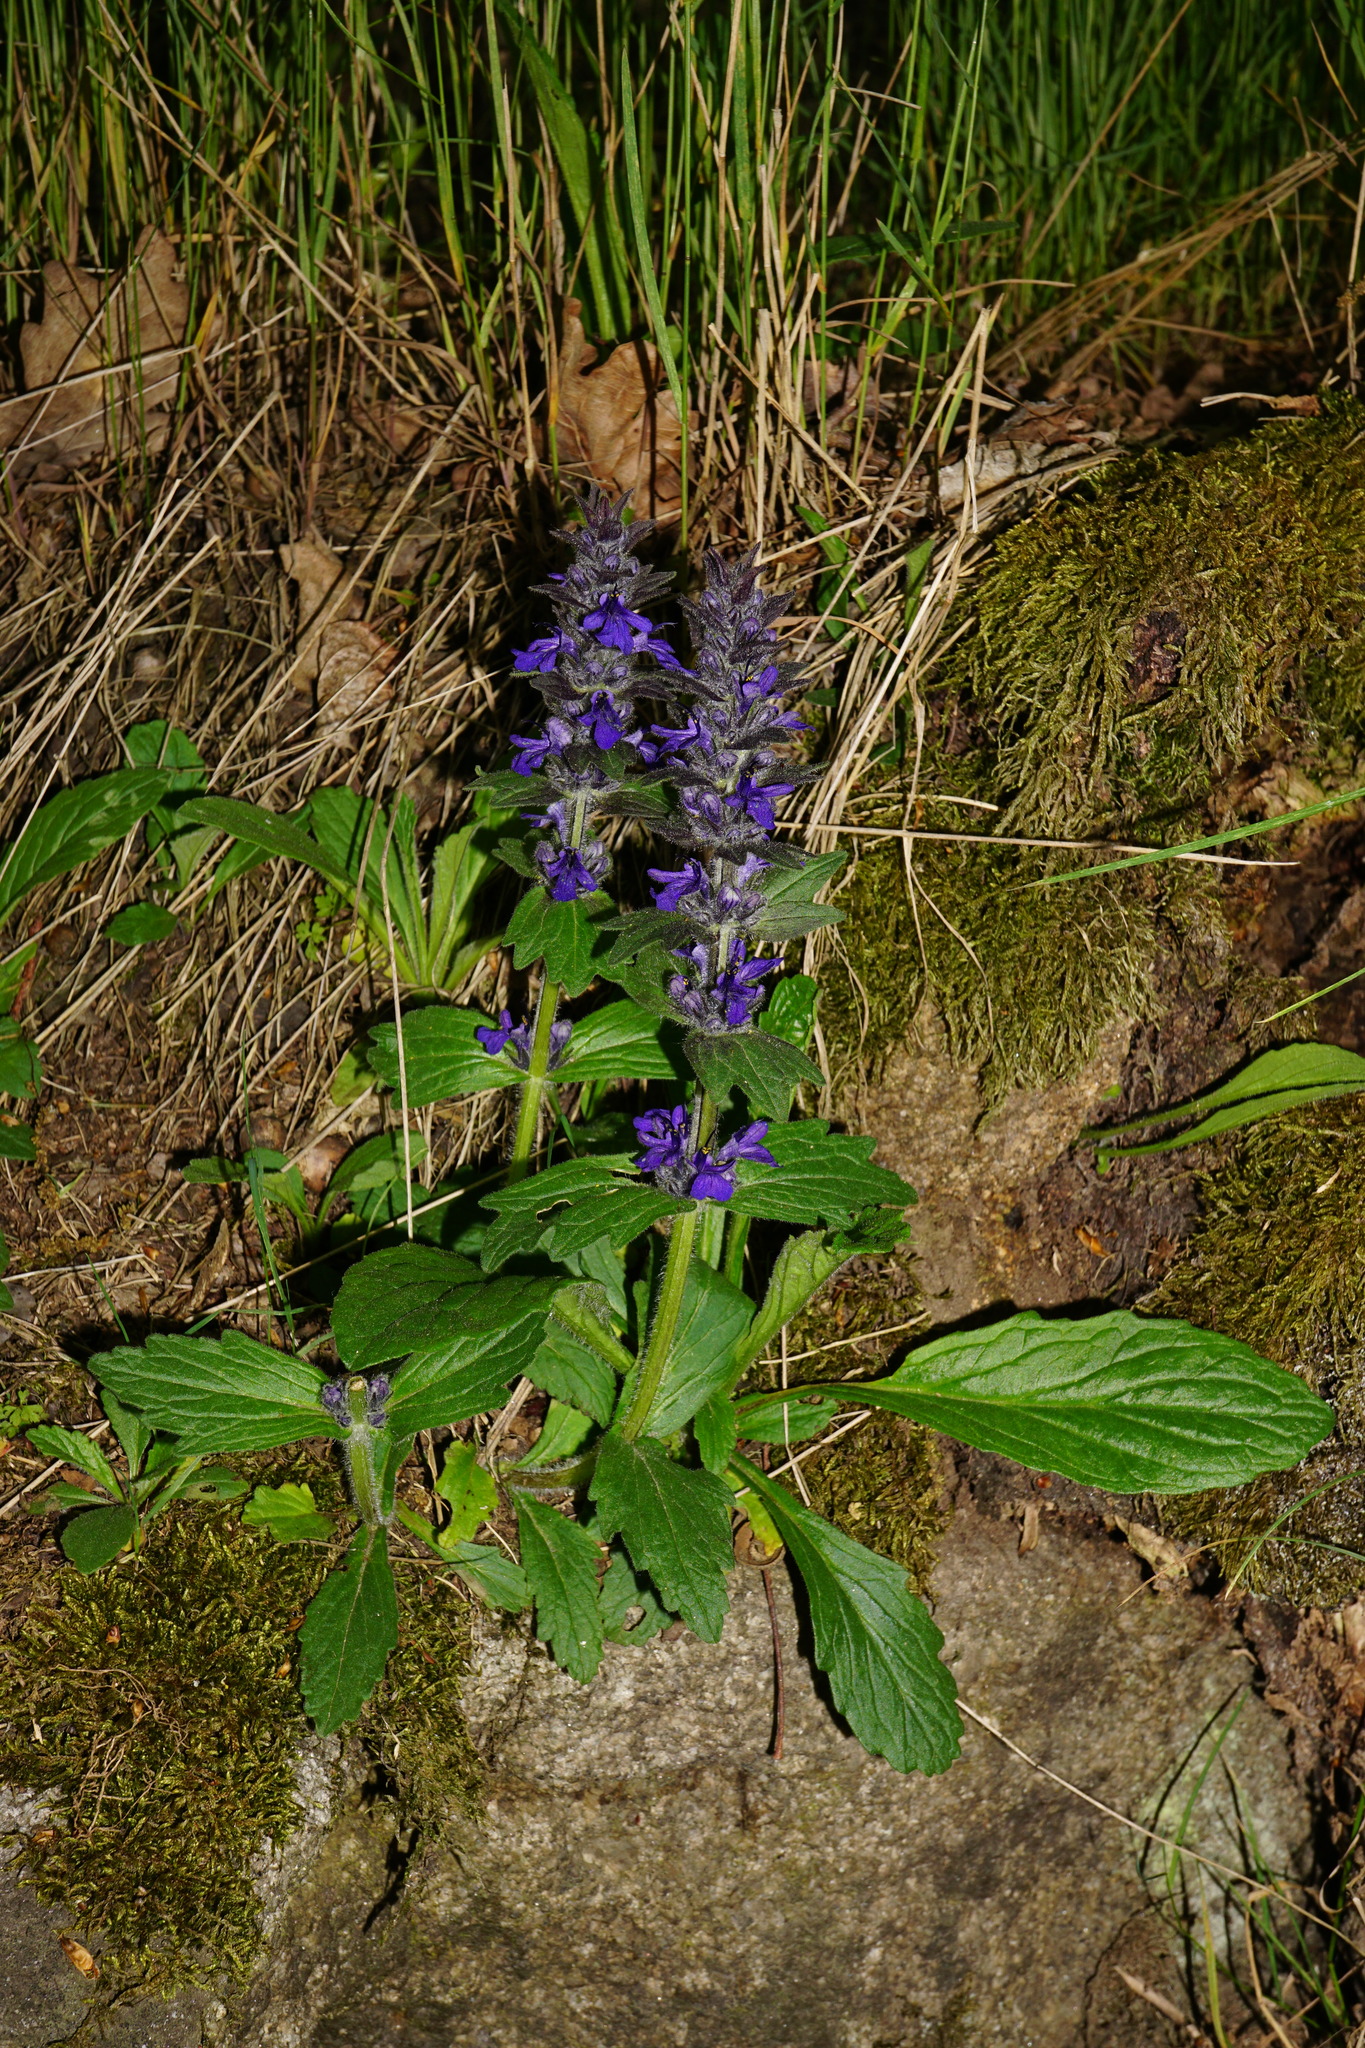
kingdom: Plantae
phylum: Tracheophyta
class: Magnoliopsida
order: Lamiales
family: Lamiaceae
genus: Ajuga
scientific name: Ajuga genevensis
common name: Blue bugle
